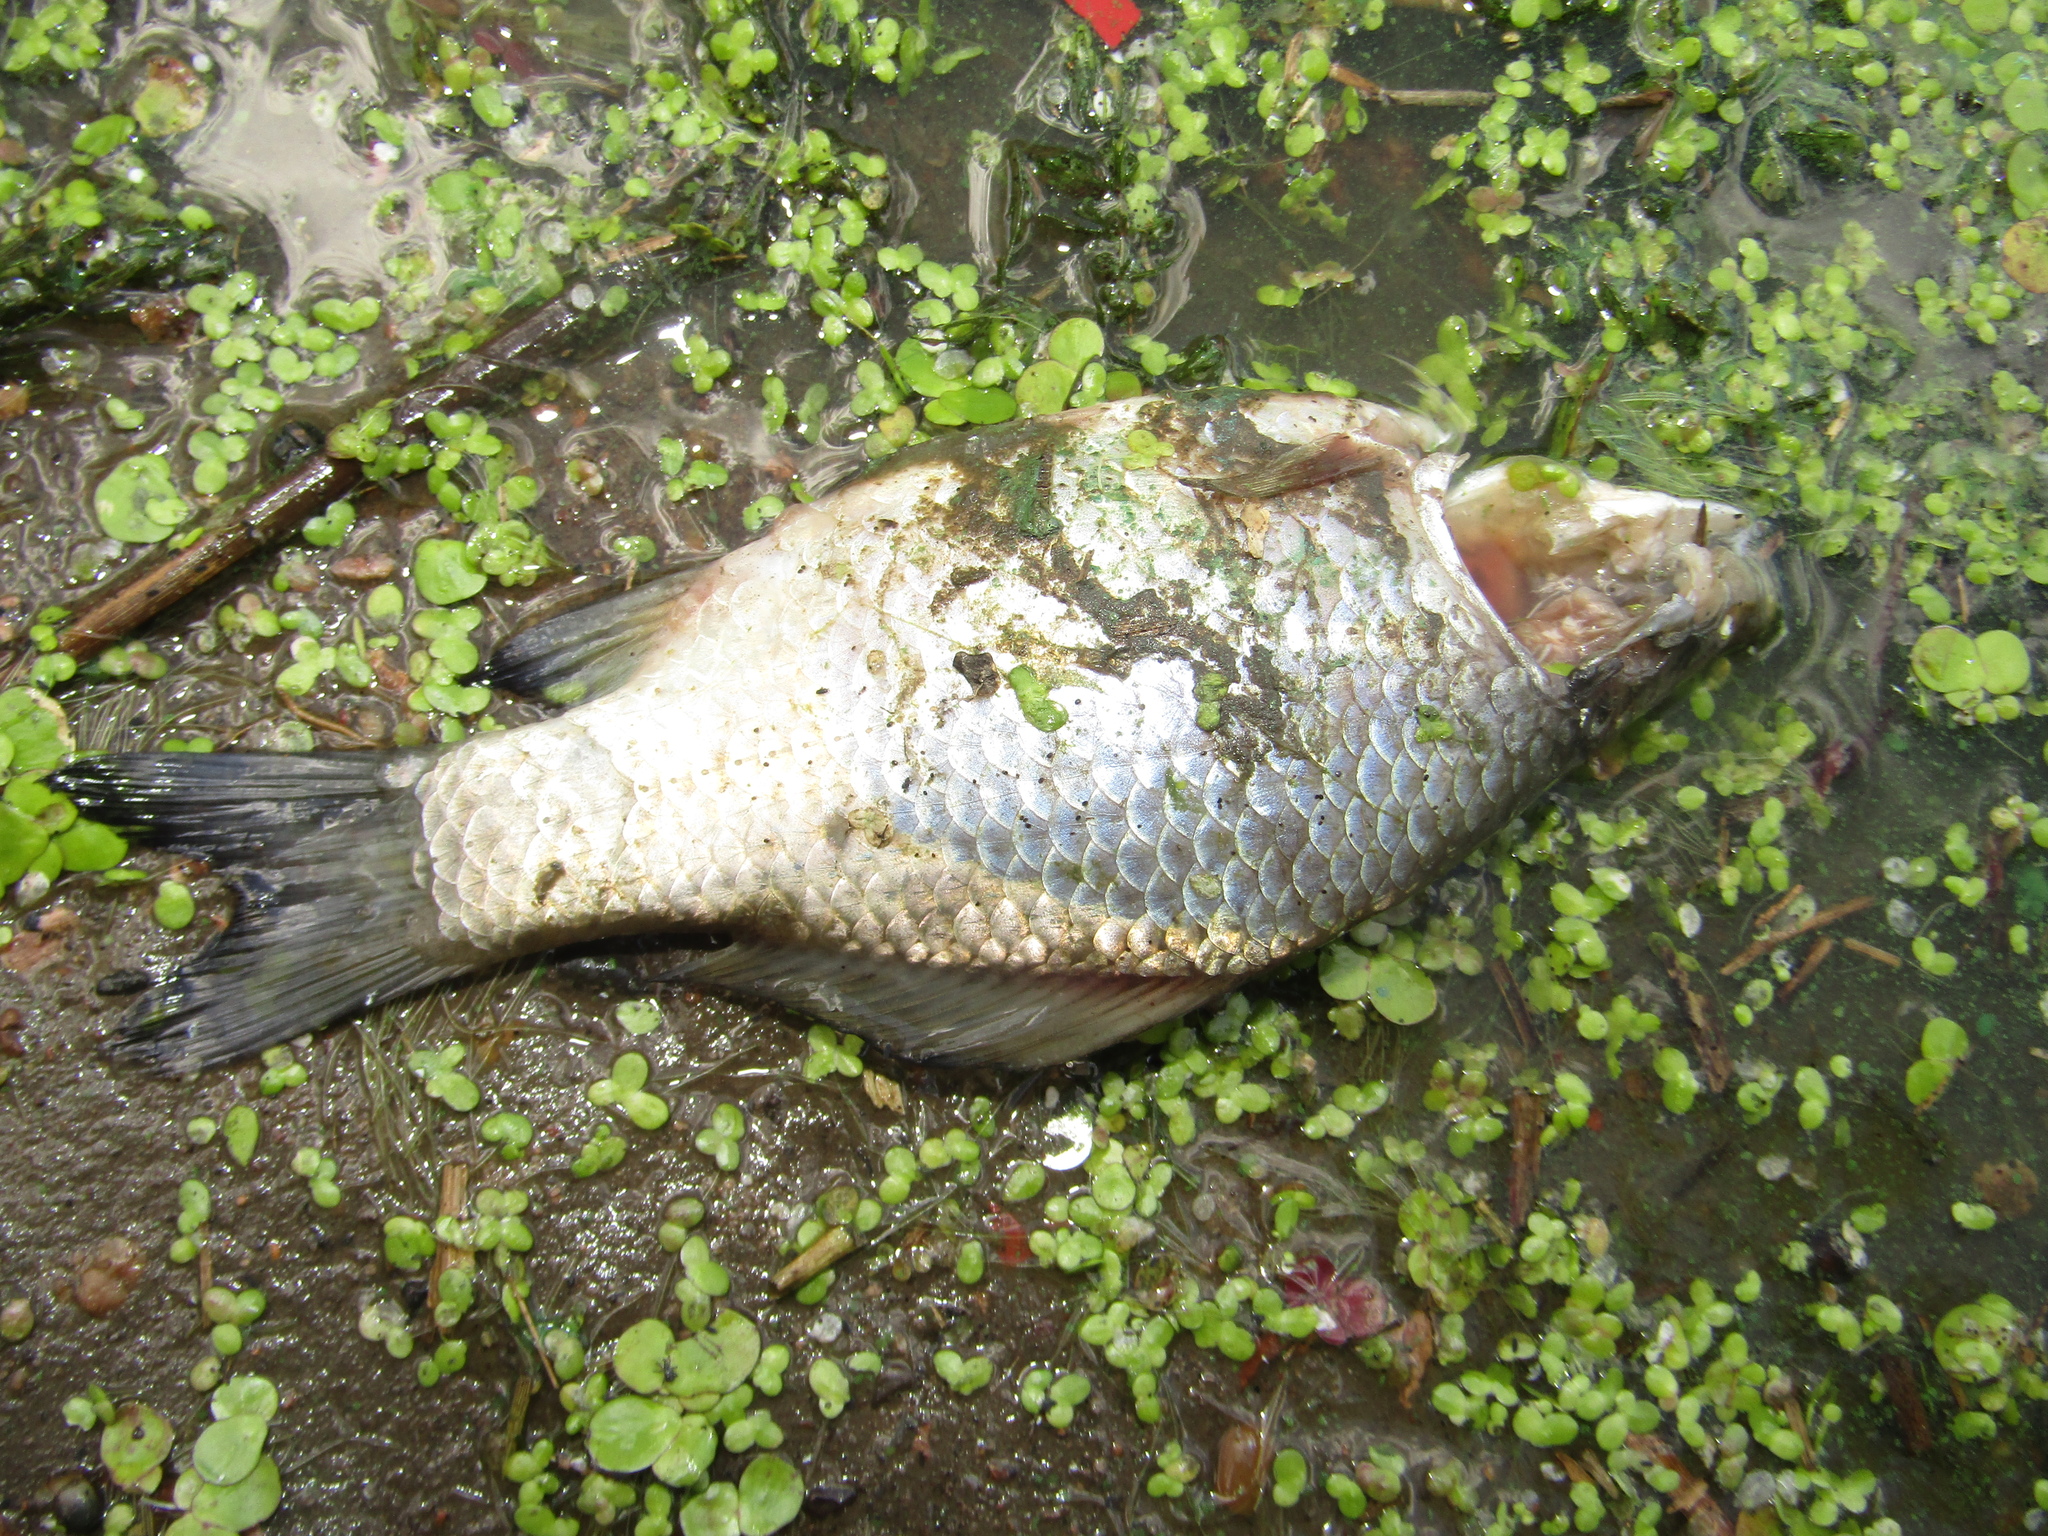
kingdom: Animalia
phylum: Chordata
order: Cypriniformes
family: Cyprinidae
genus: Carassius
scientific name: Carassius gibelio
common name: Prussian carp
